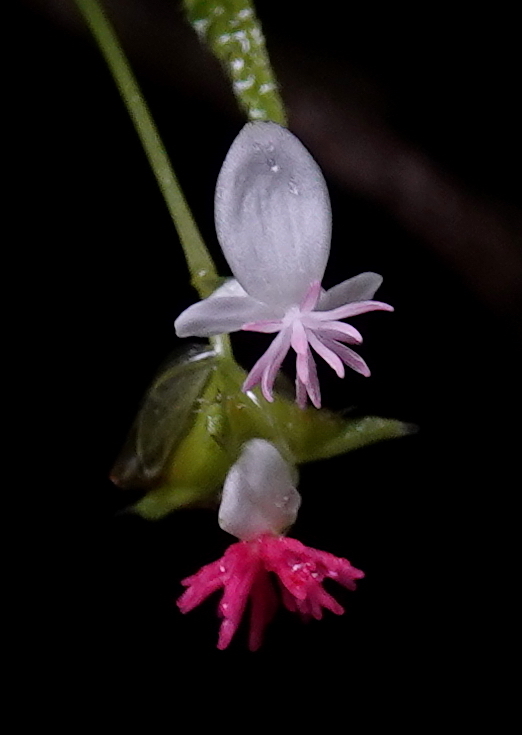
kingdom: Plantae
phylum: Tracheophyta
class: Magnoliopsida
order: Cucurbitales
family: Begoniaceae
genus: Begonia
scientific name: Begonia urticae
